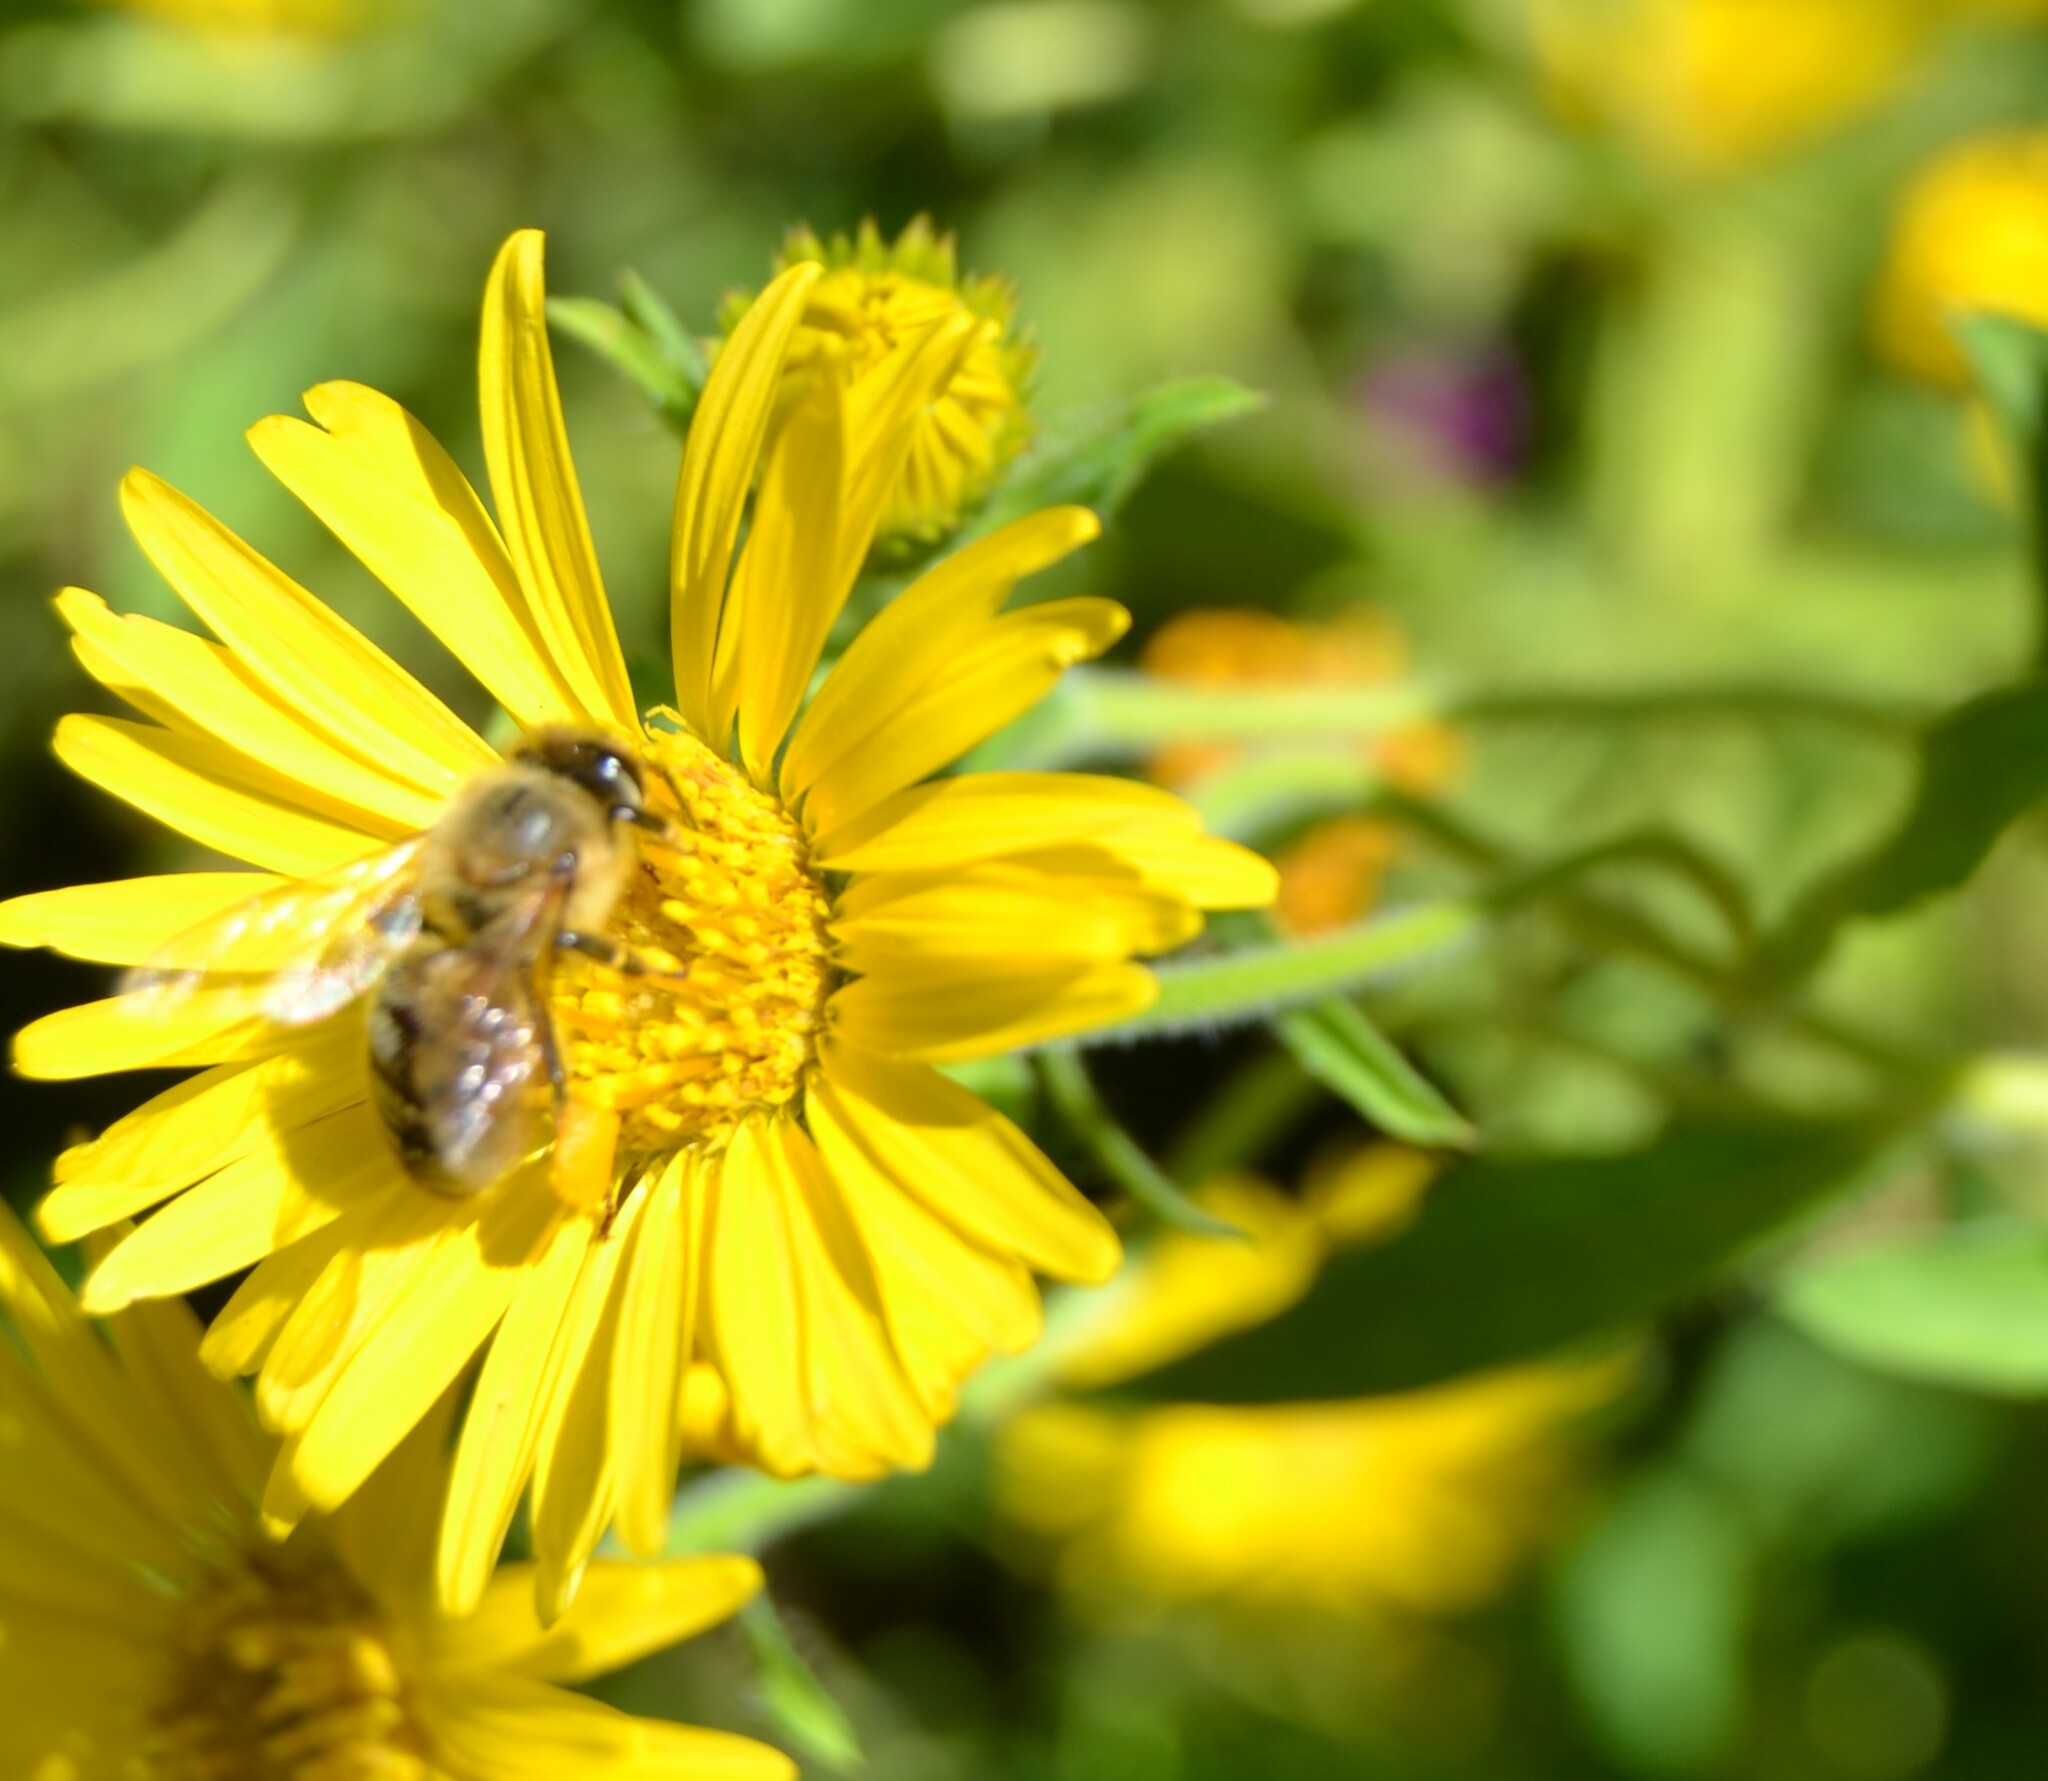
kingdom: Animalia
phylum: Arthropoda
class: Insecta
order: Hymenoptera
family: Apidae
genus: Apis
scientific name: Apis mellifera
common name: Honey bee
